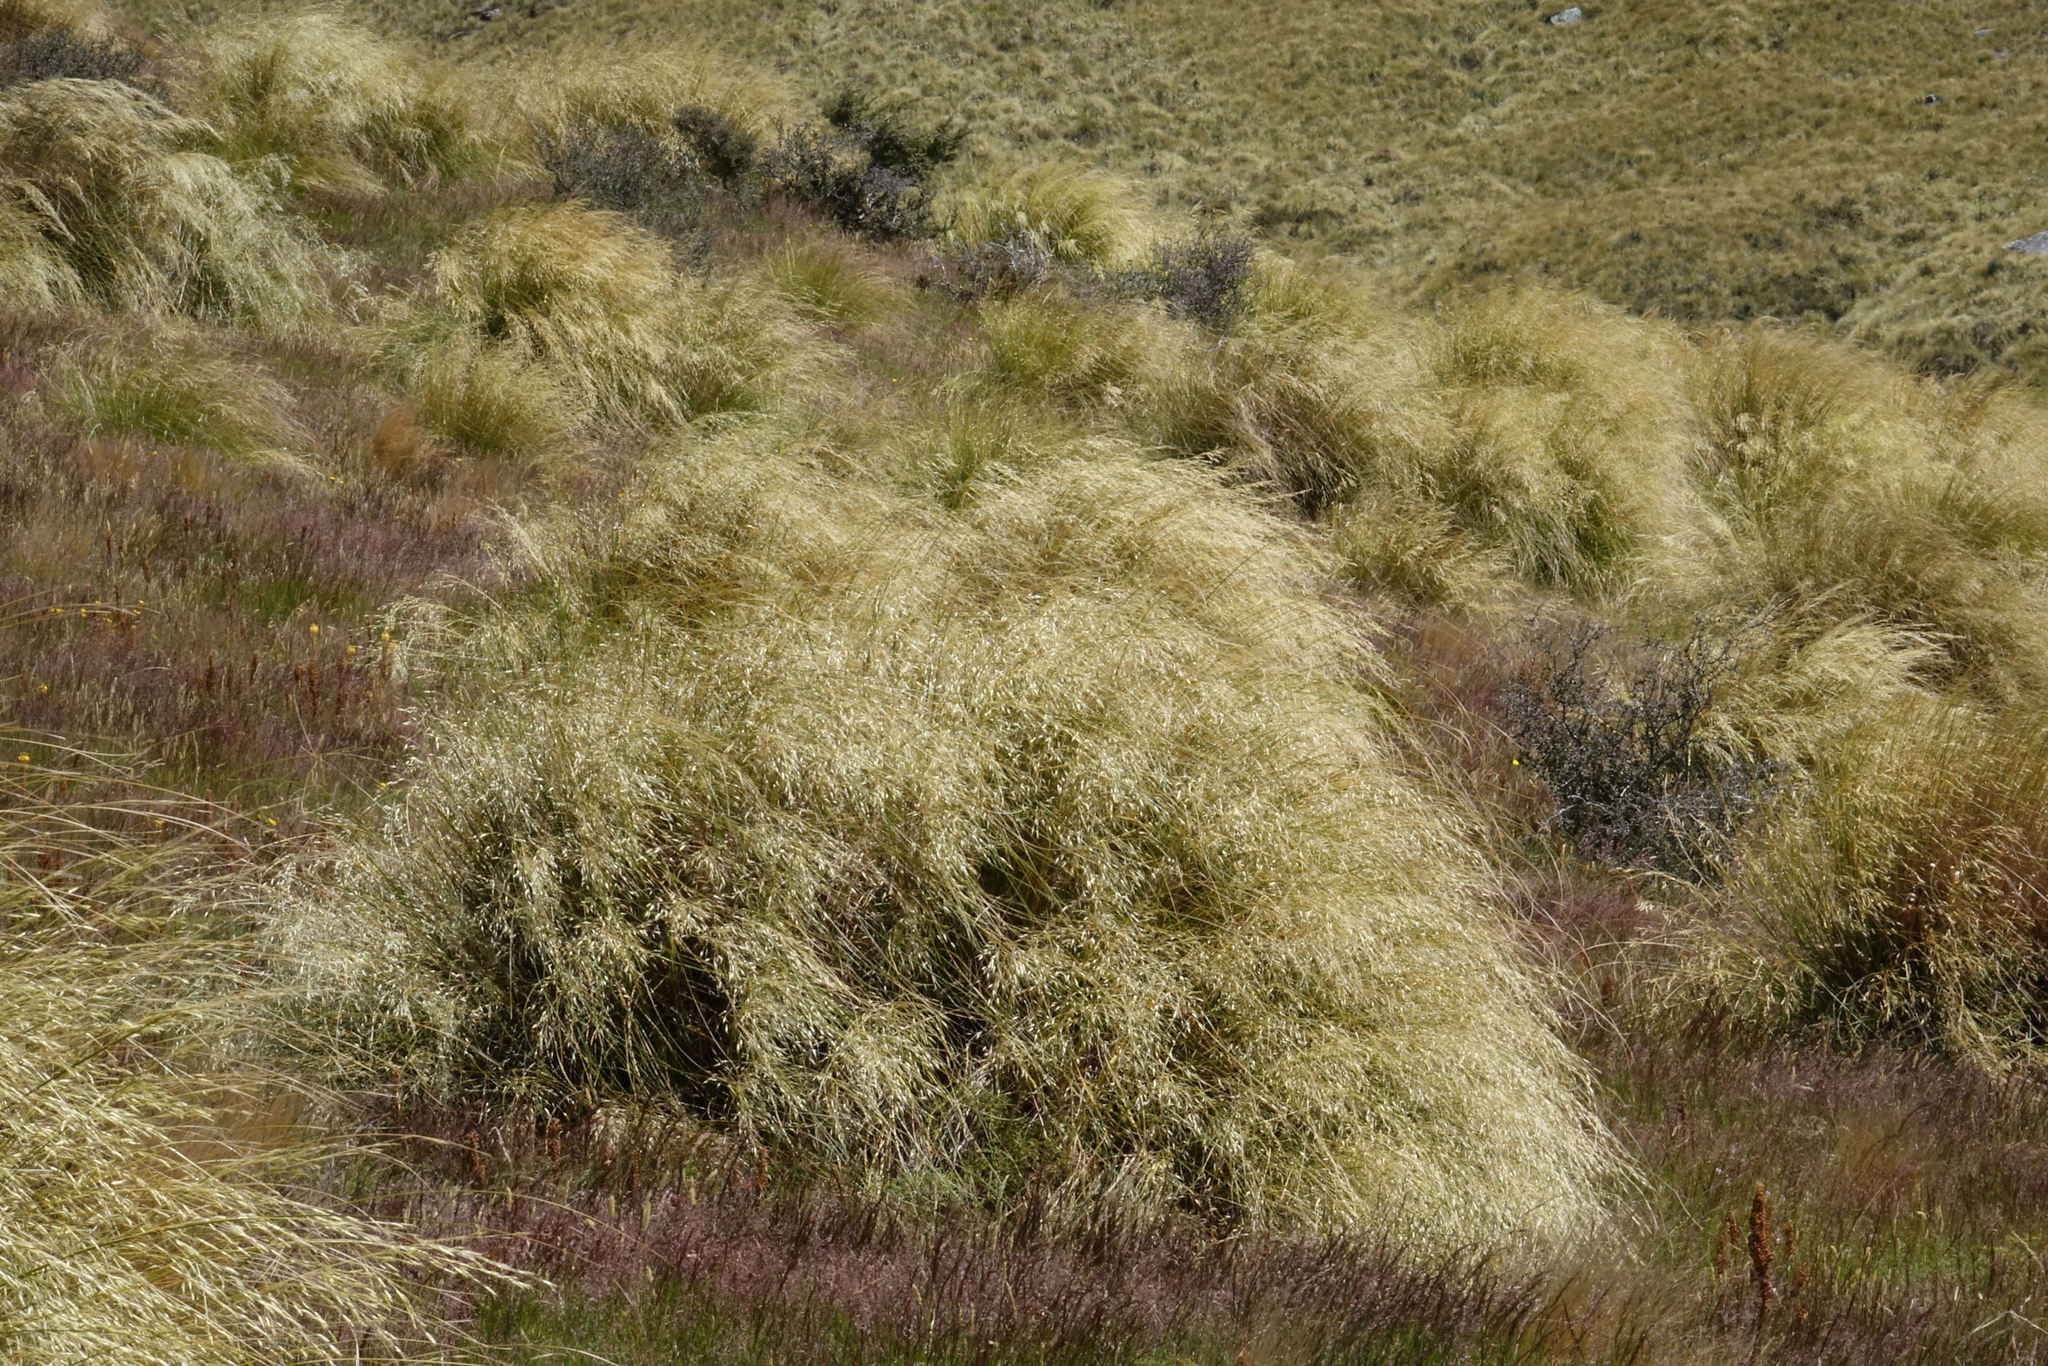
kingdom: Plantae
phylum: Tracheophyta
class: Liliopsida
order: Poales
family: Poaceae
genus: Chionochloa
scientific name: Chionochloa rigida
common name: Narrow leaved snow tussock
